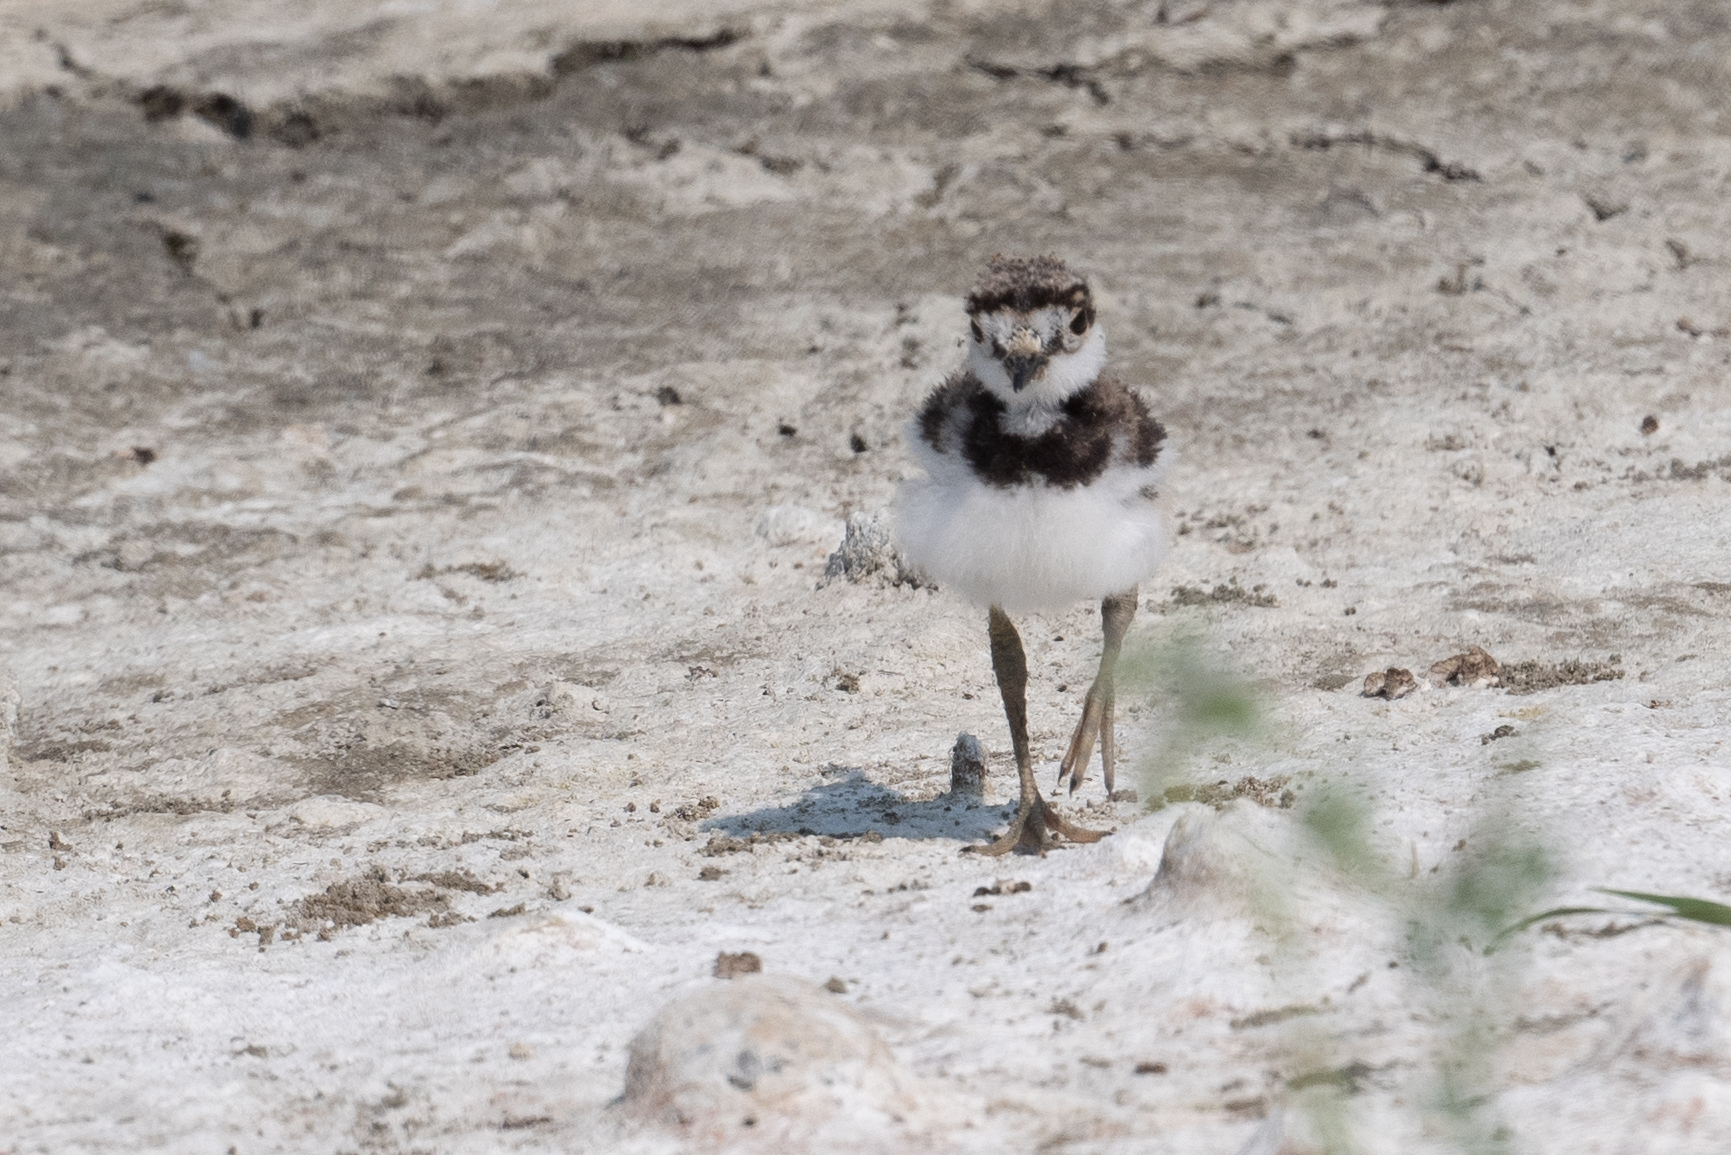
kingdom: Animalia
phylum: Chordata
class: Aves
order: Charadriiformes
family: Charadriidae
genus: Charadrius
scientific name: Charadrius vociferus
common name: Killdeer
